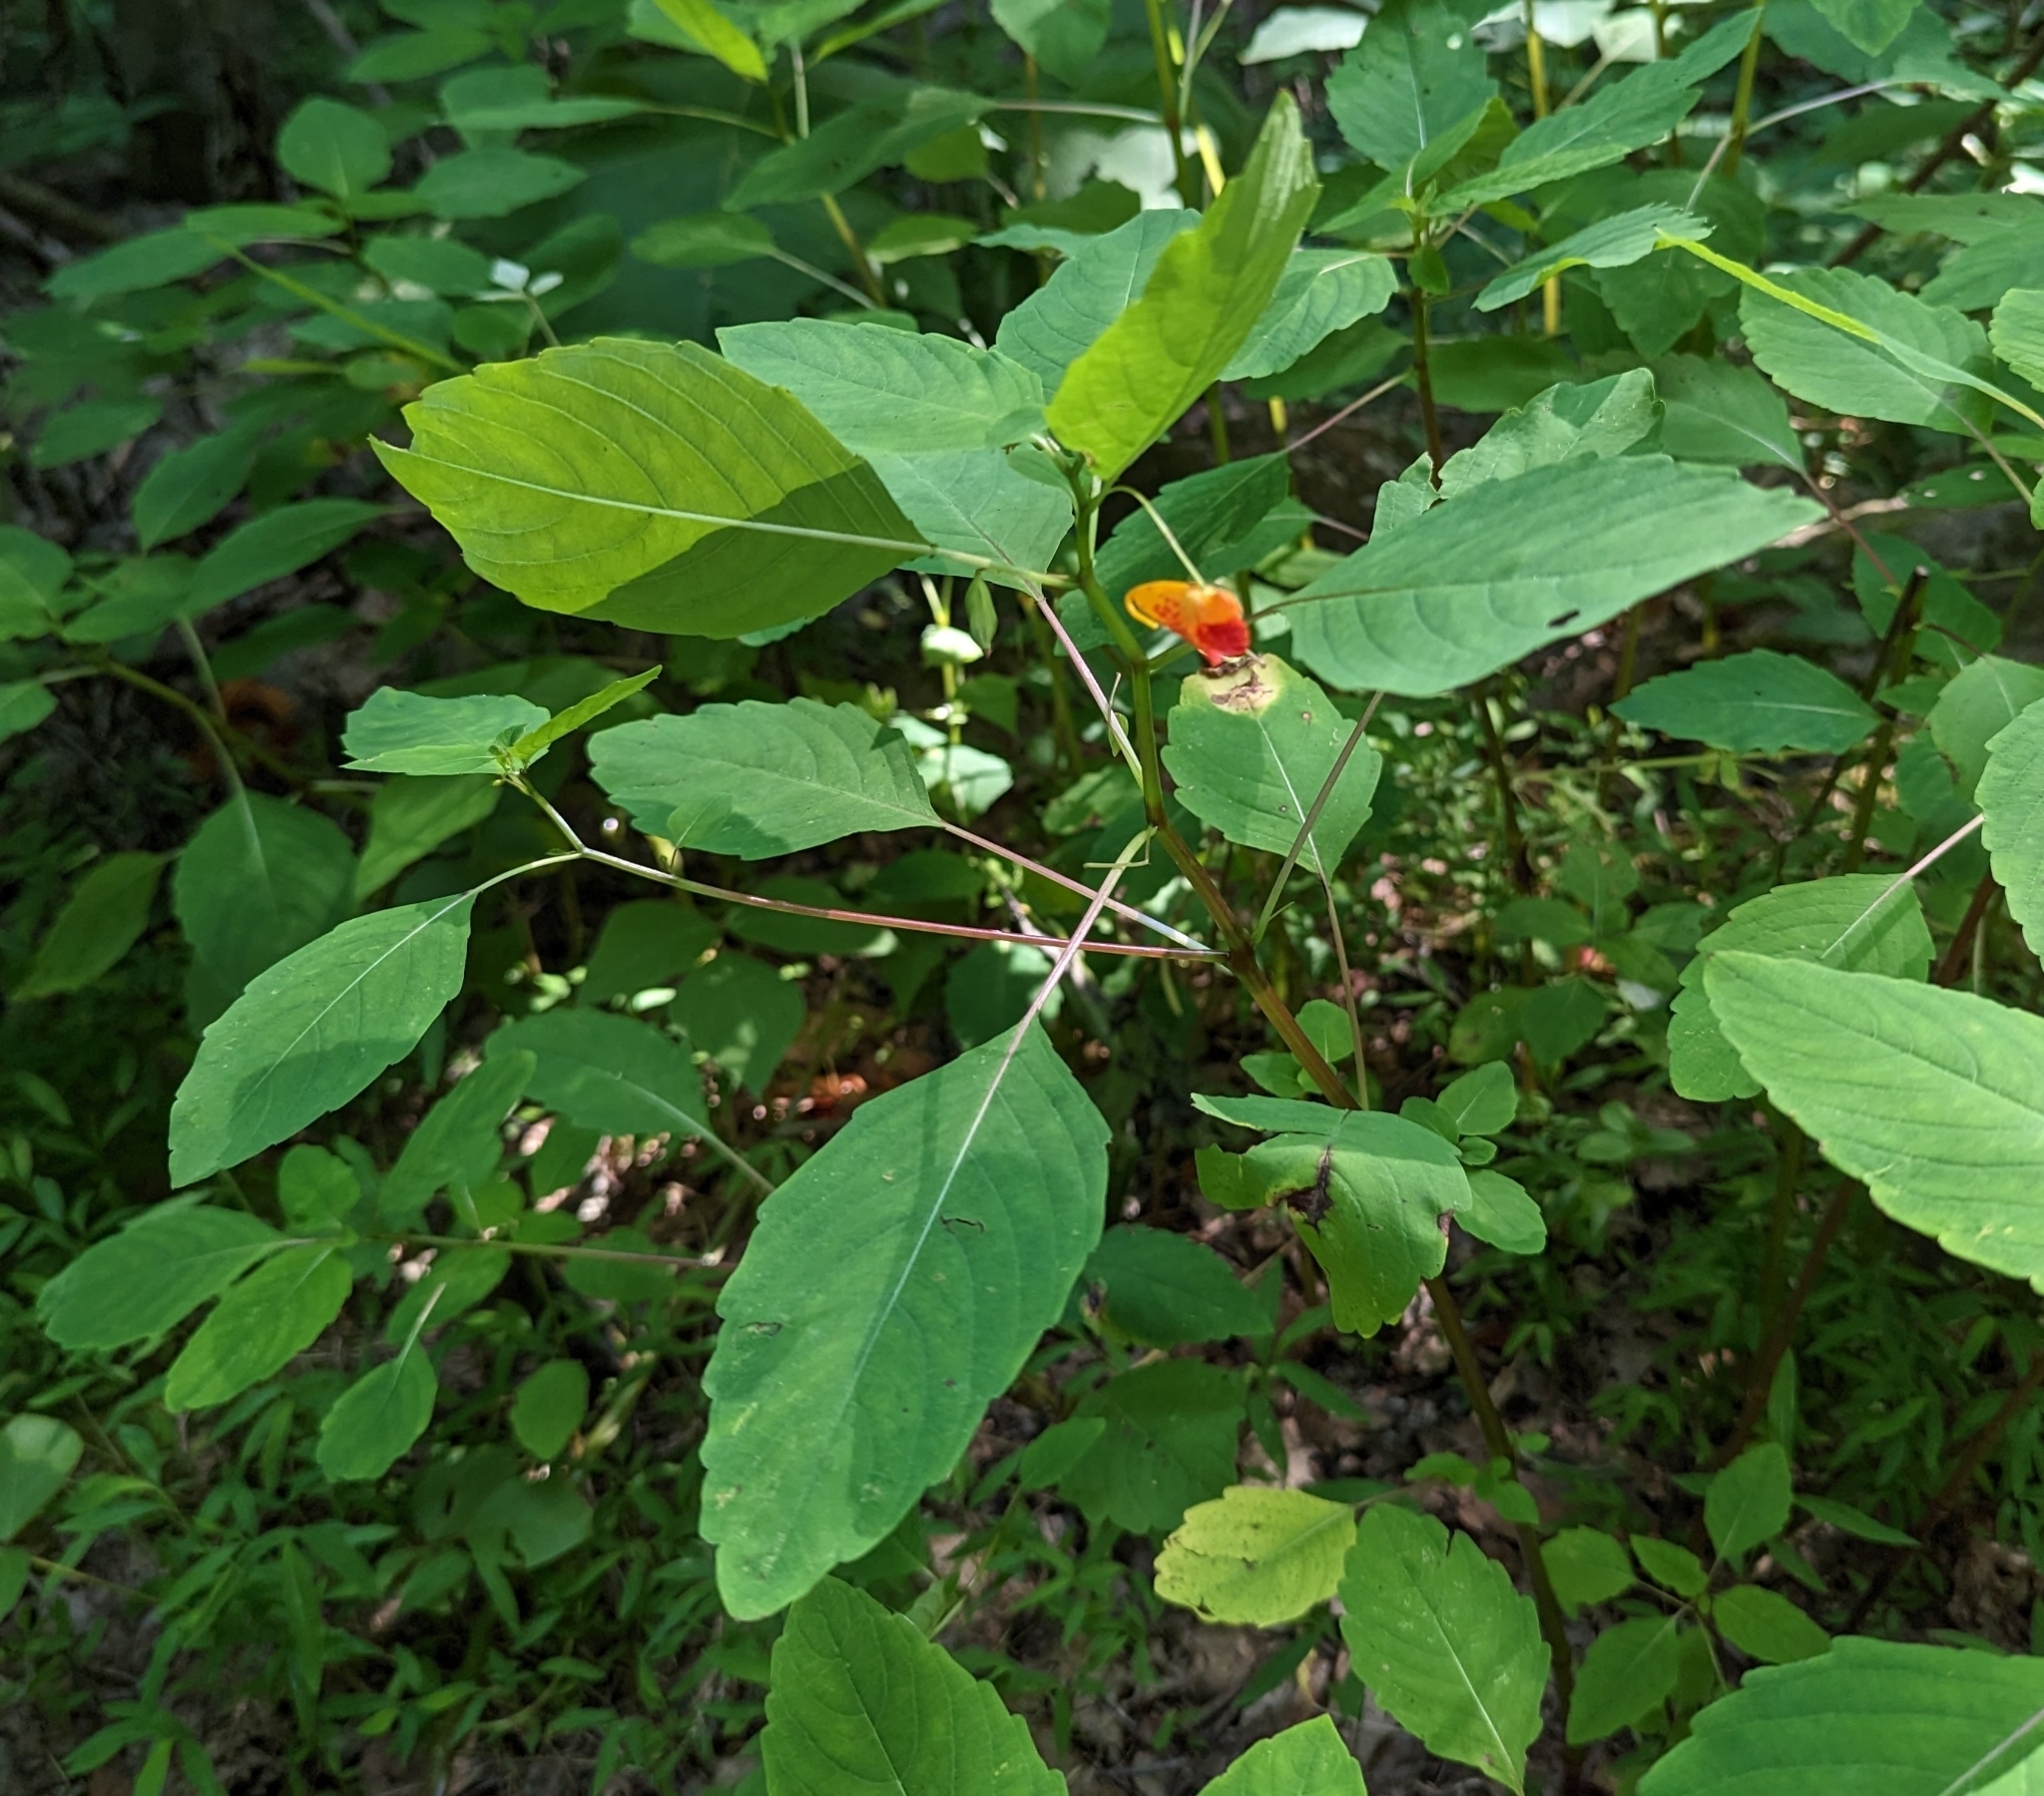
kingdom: Plantae
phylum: Tracheophyta
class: Magnoliopsida
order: Ericales
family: Balsaminaceae
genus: Impatiens
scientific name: Impatiens capensis
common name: Orange balsam
